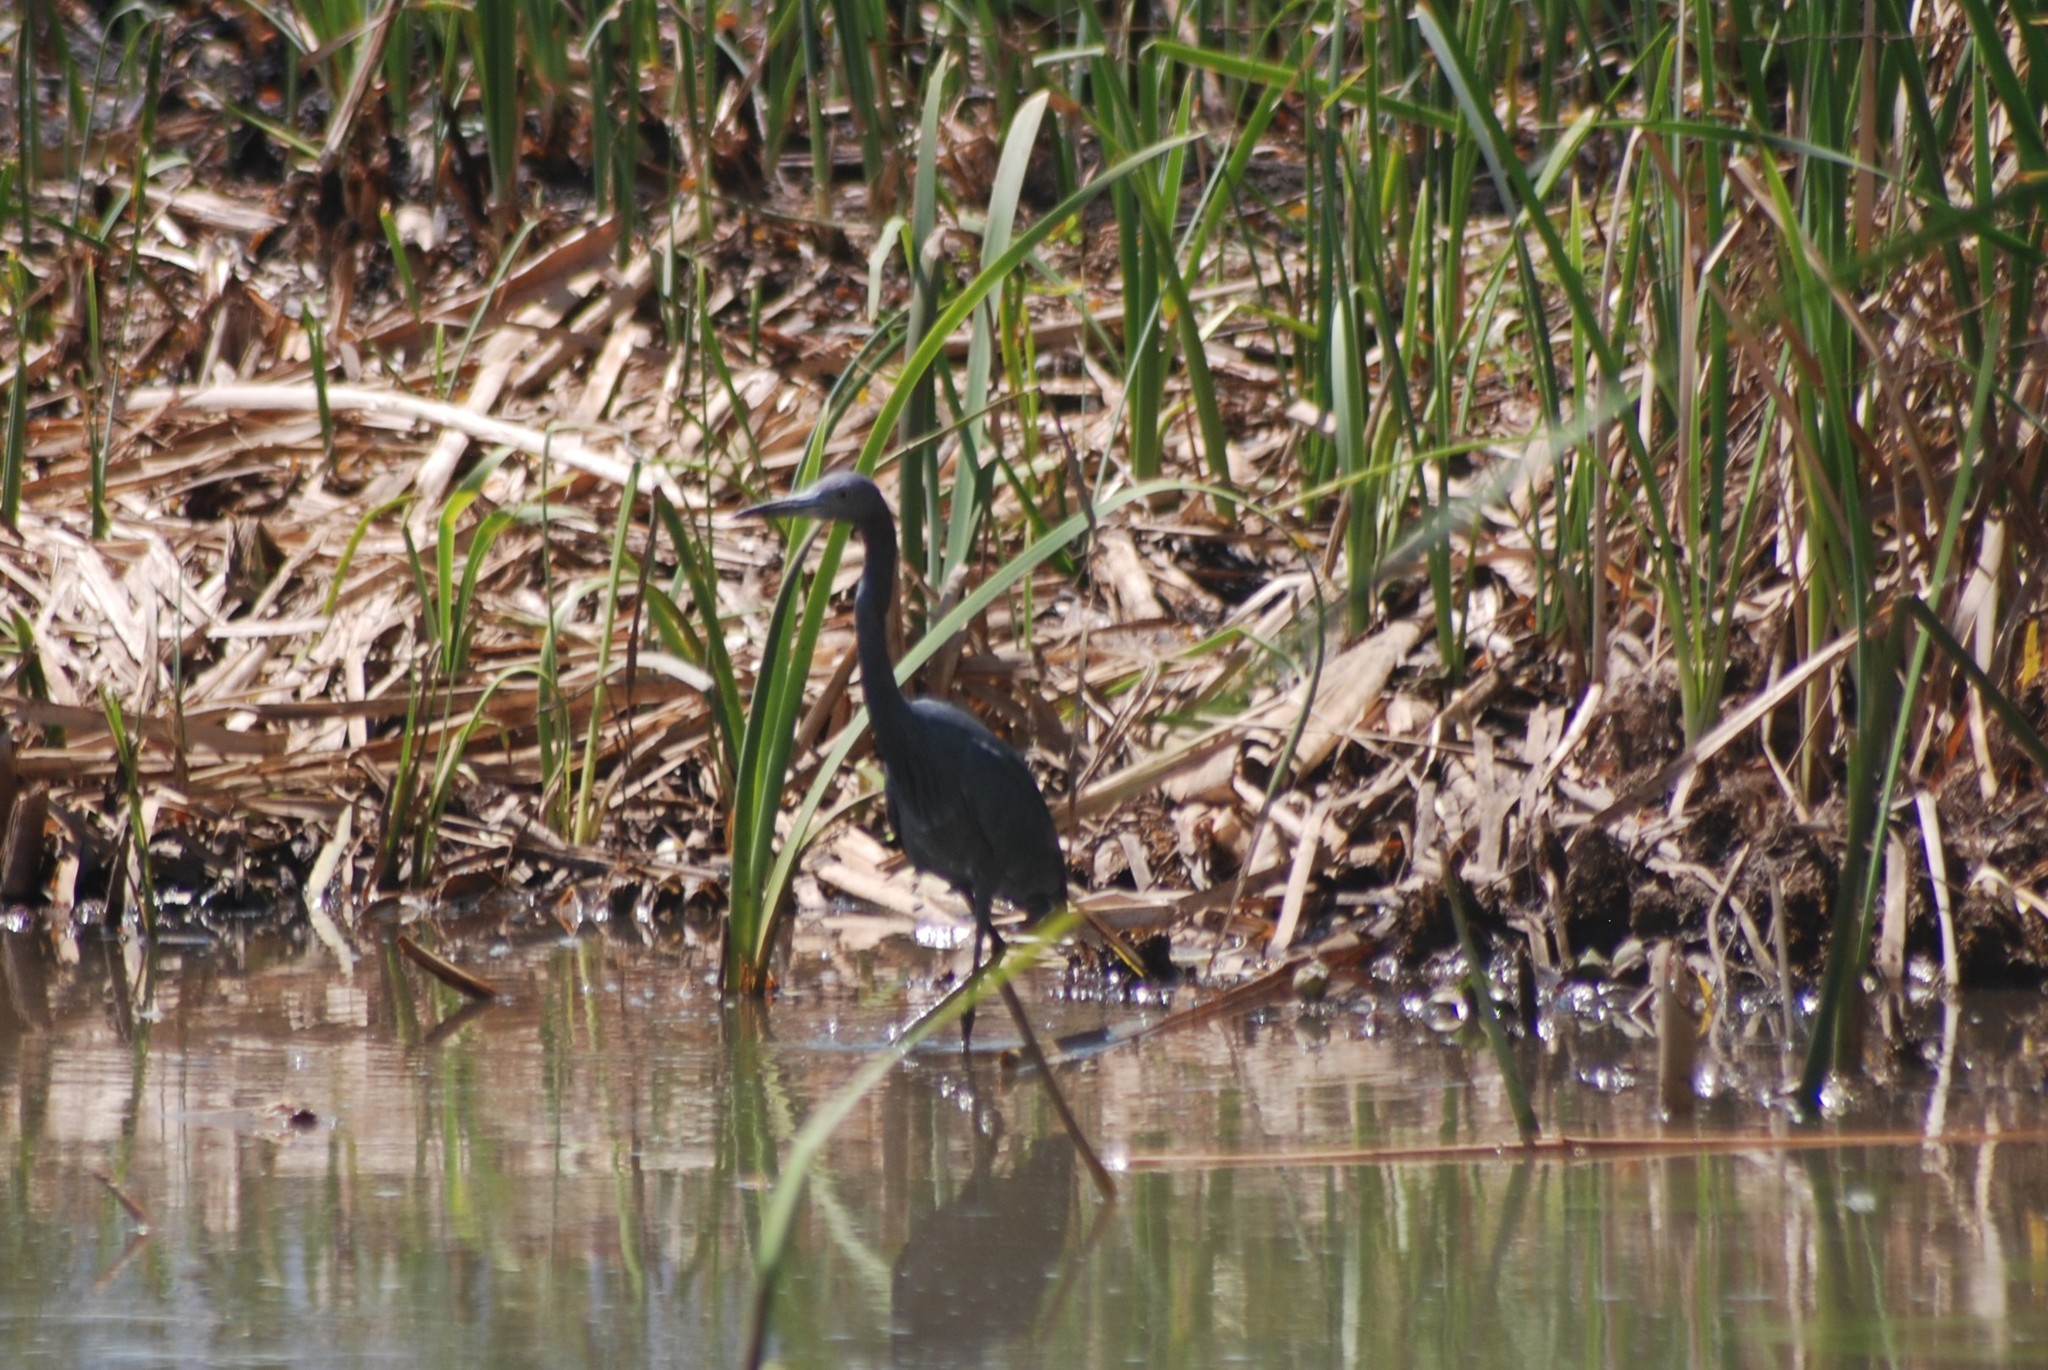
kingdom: Animalia
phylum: Chordata
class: Aves
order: Pelecaniformes
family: Ardeidae
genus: Egretta
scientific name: Egretta caerulea
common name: Little blue heron
